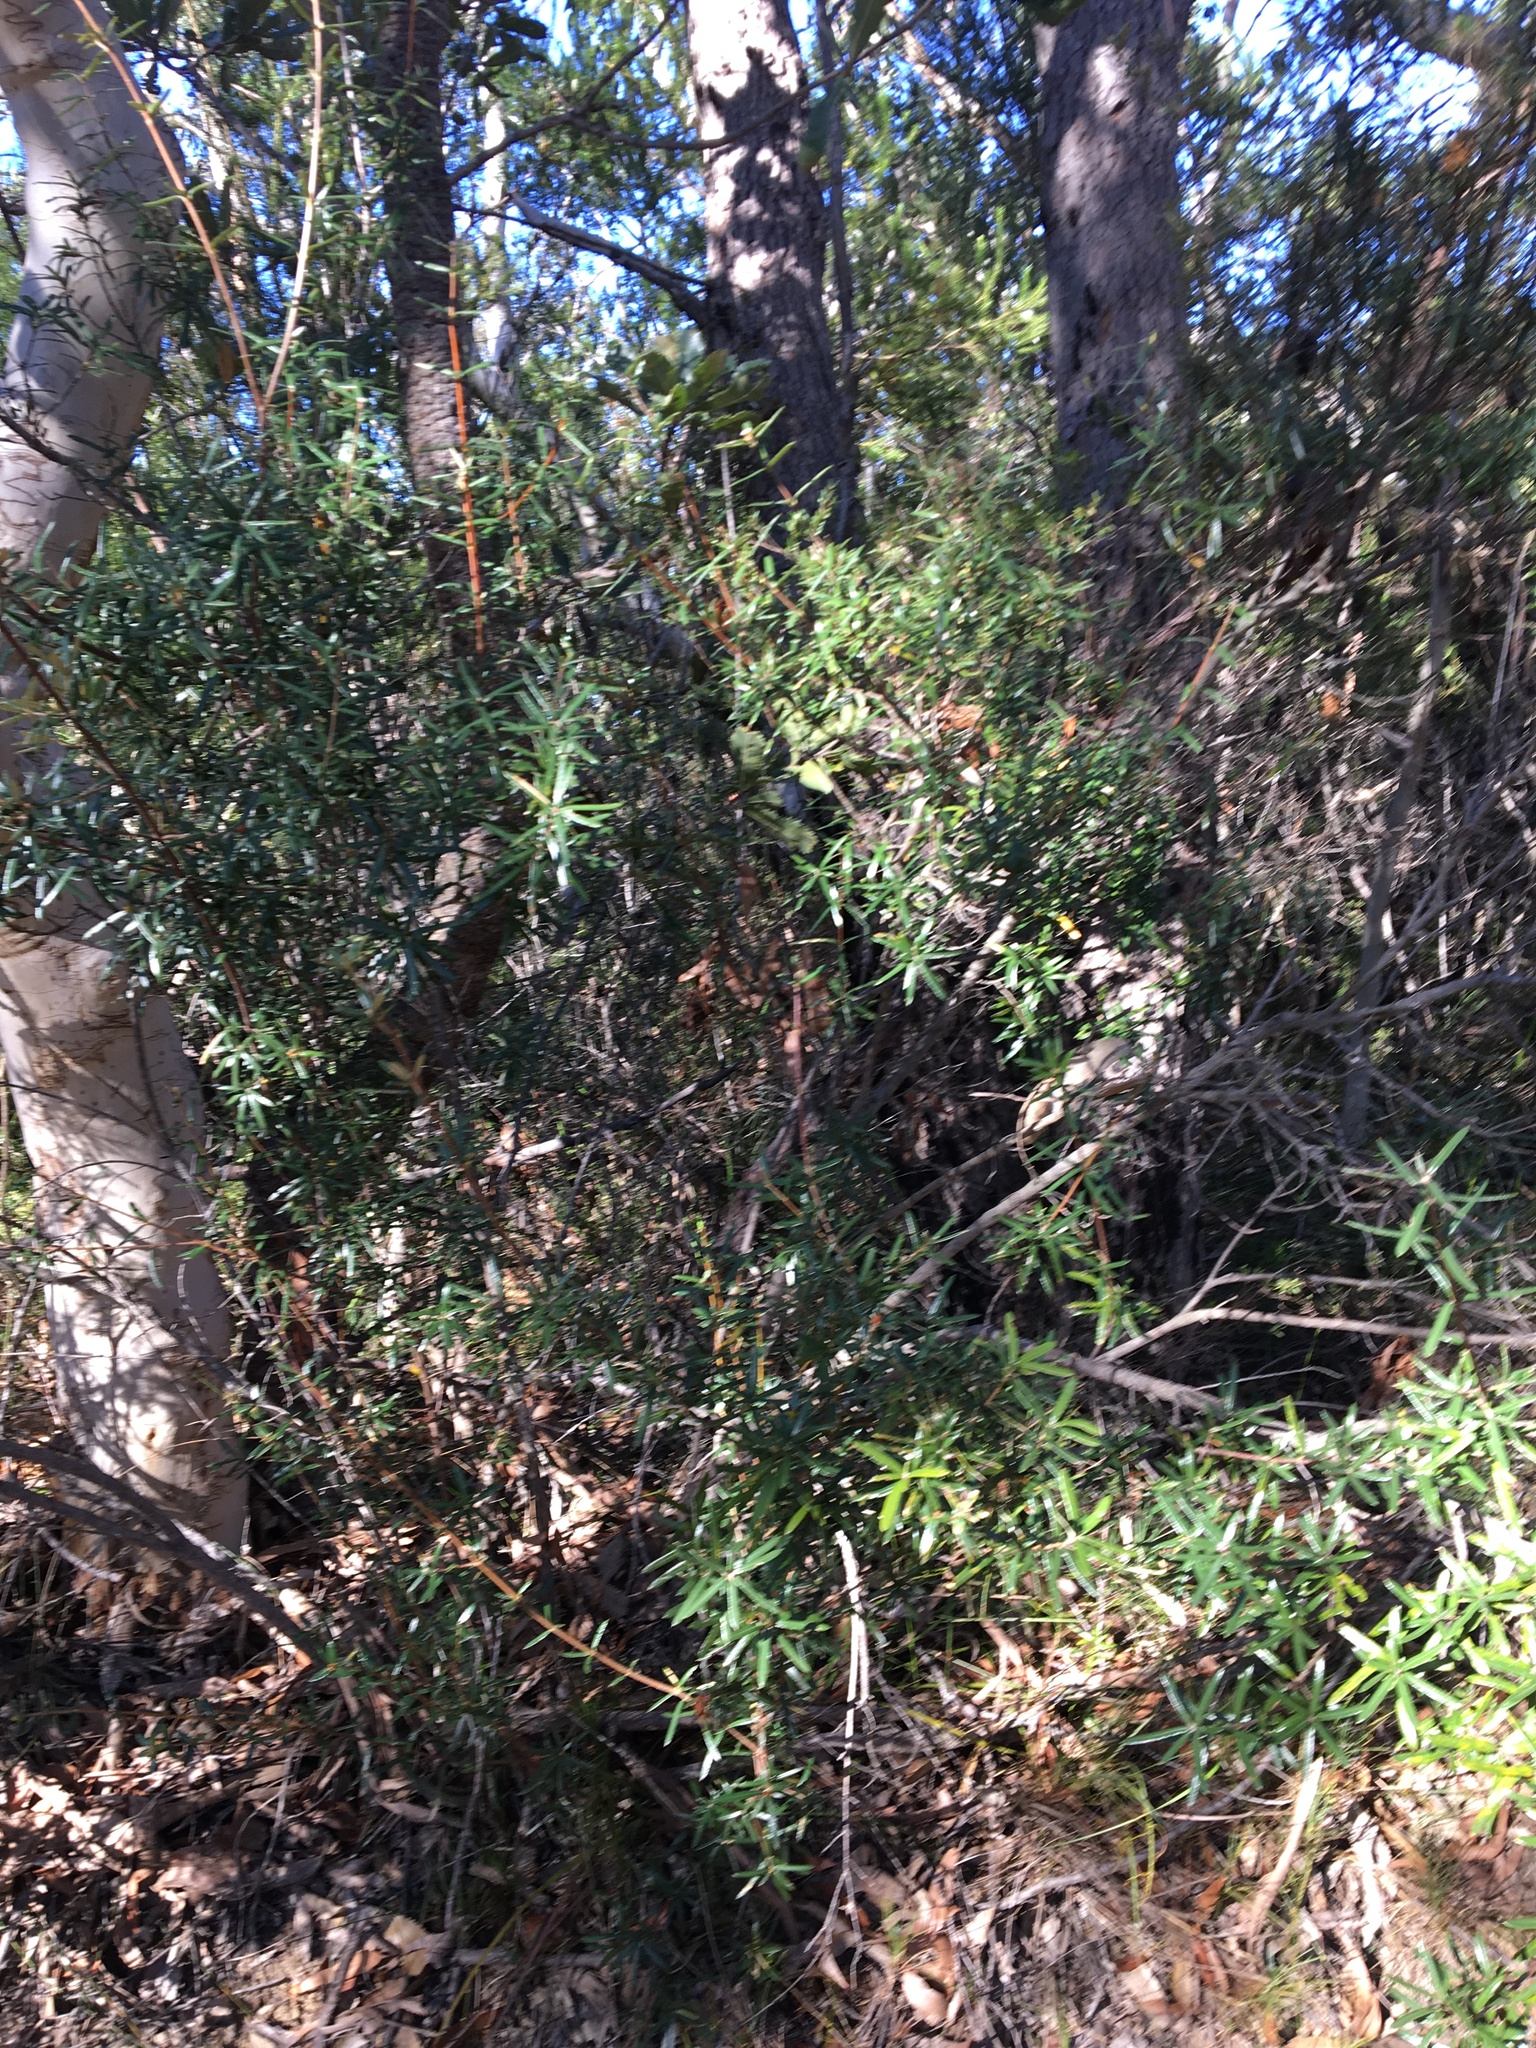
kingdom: Plantae
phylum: Tracheophyta
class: Magnoliopsida
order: Proteales
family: Proteaceae
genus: Lambertia
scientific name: Lambertia formosa
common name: Mountain-devil
